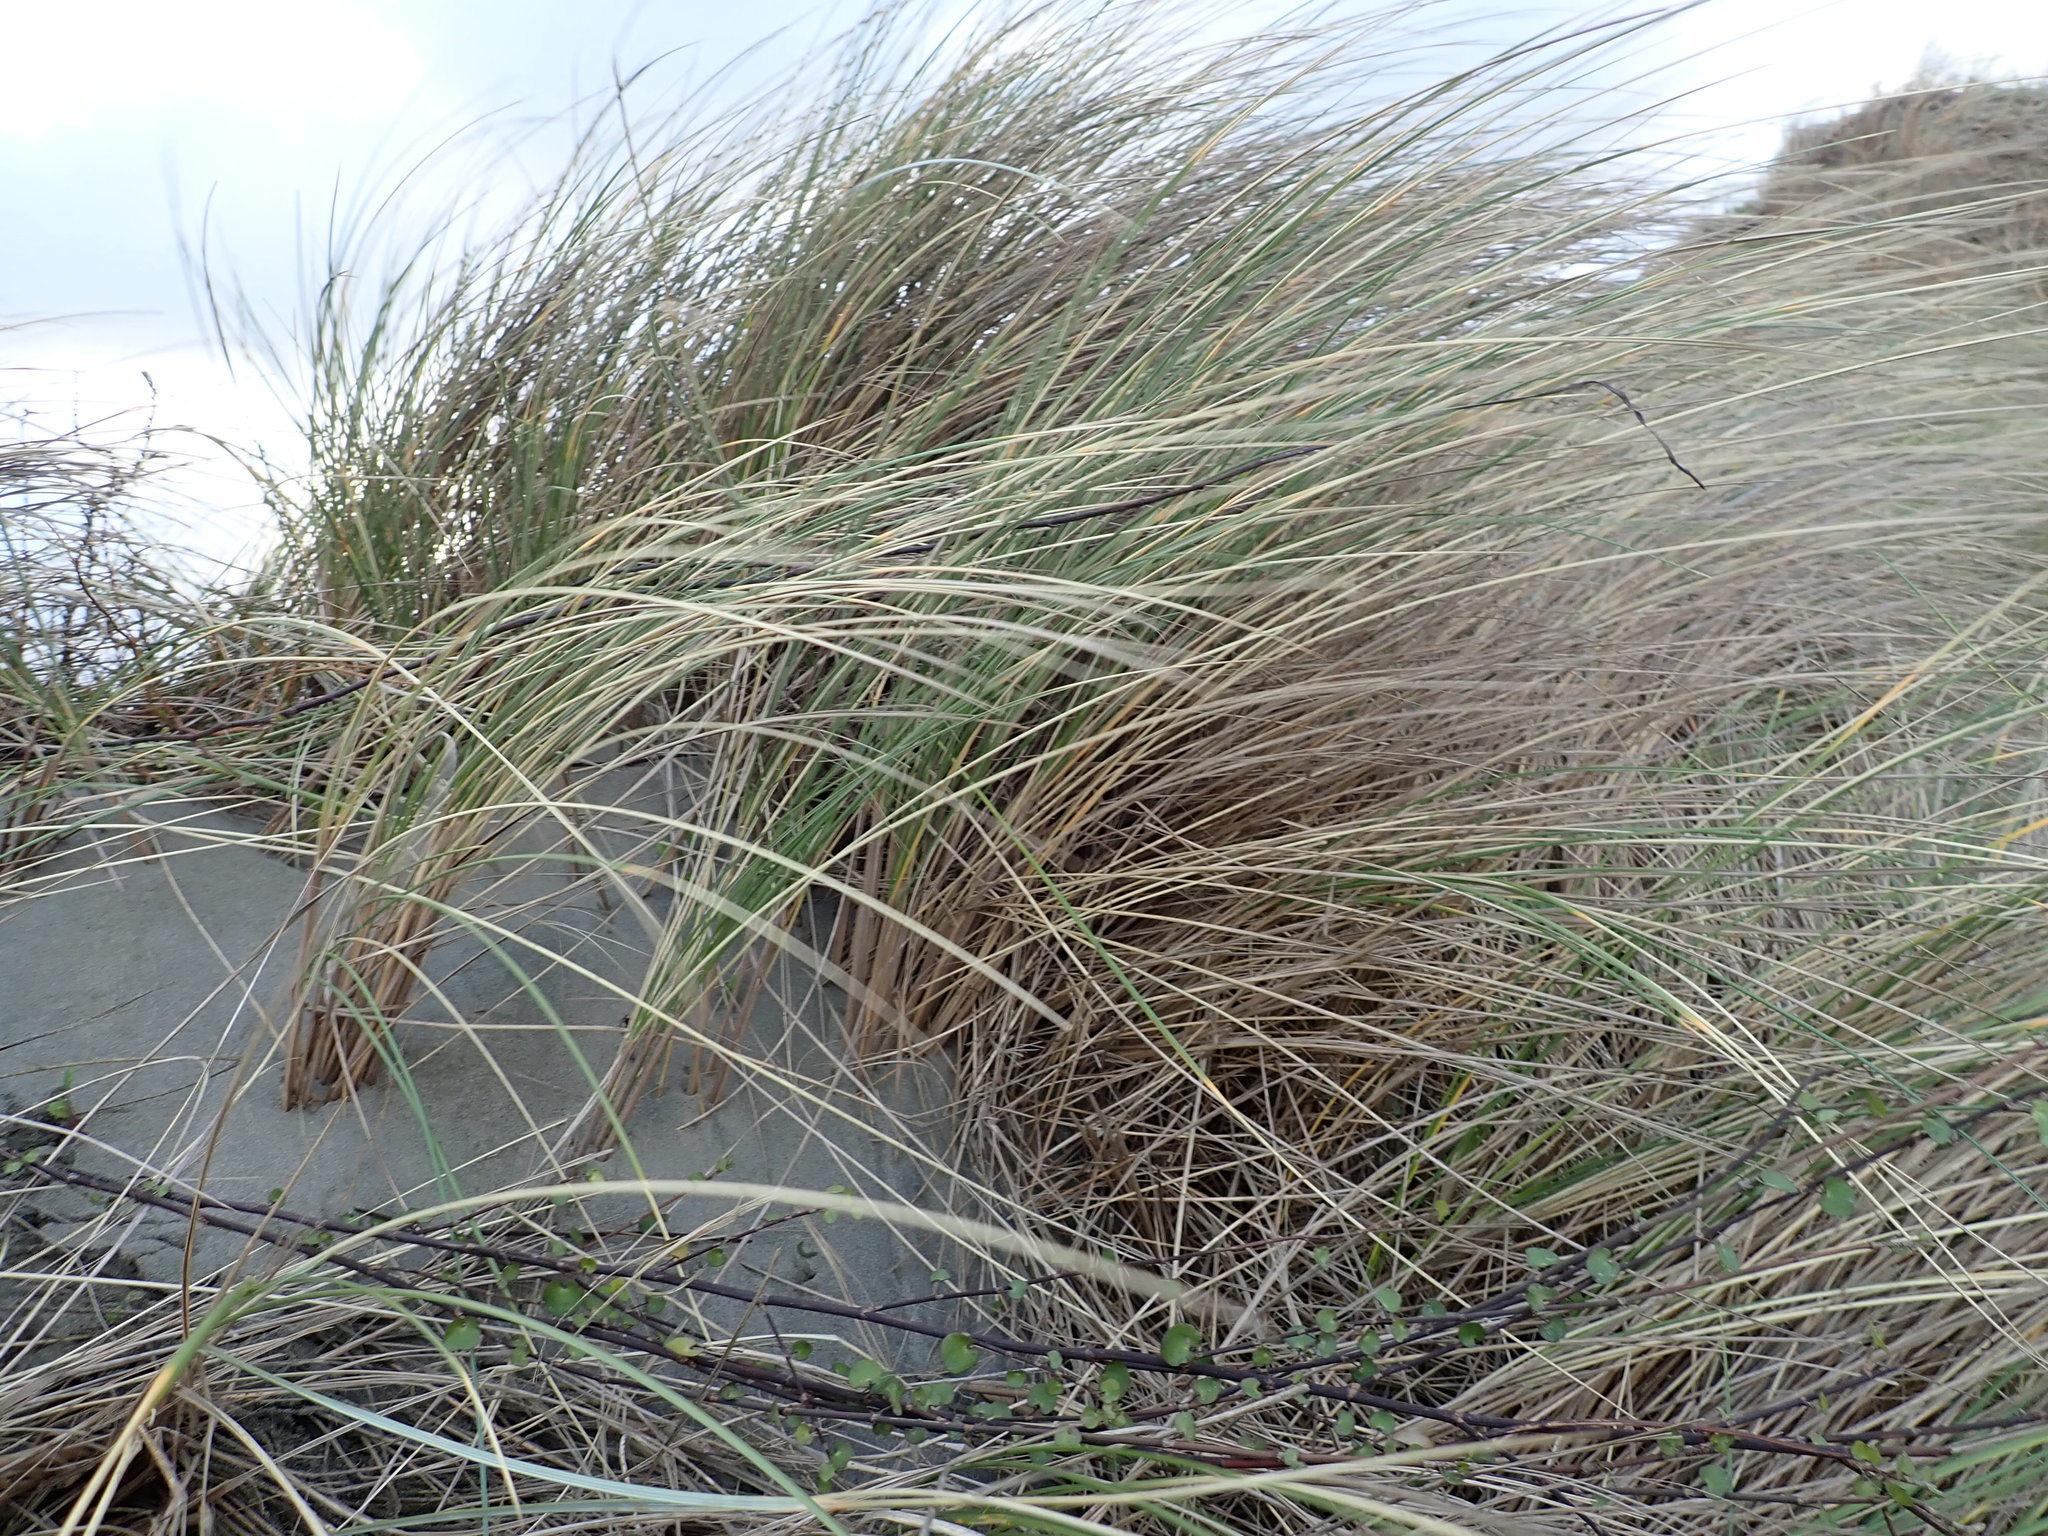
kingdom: Plantae
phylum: Tracheophyta
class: Magnoliopsida
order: Caryophyllales
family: Polygonaceae
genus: Muehlenbeckia
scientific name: Muehlenbeckia complexa
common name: Wireplant
